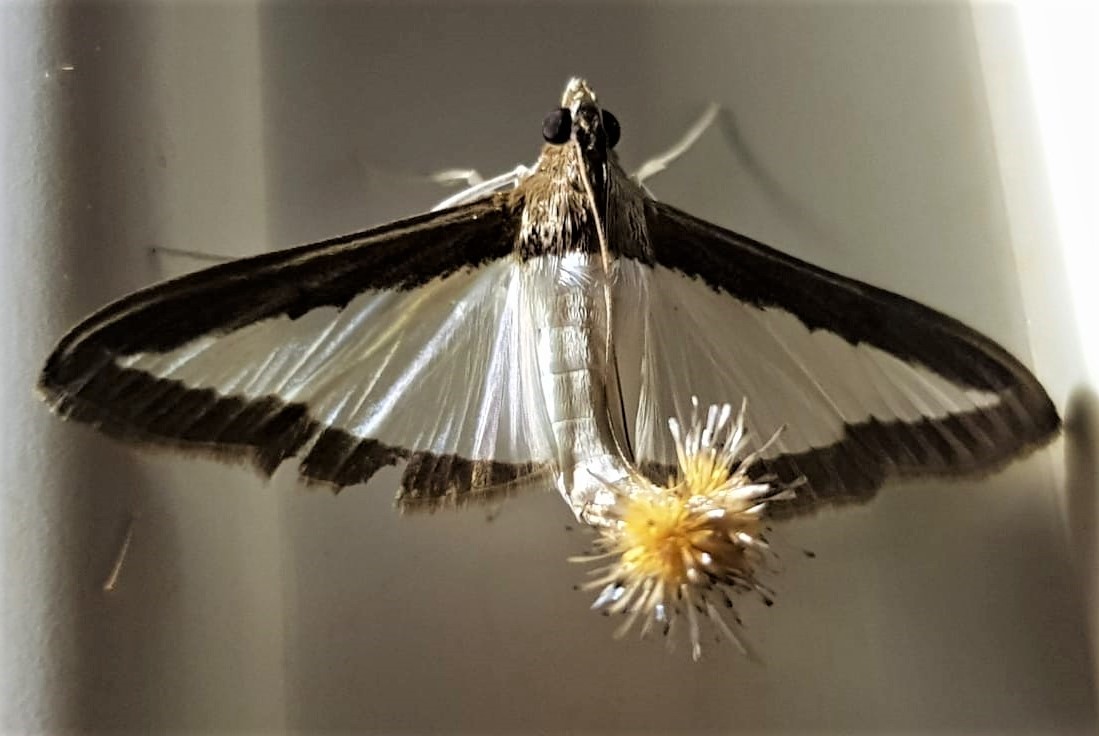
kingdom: Animalia
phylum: Arthropoda
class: Insecta
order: Lepidoptera
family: Crambidae
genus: Diaphania
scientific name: Diaphania hyalinata
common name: Melonworm
